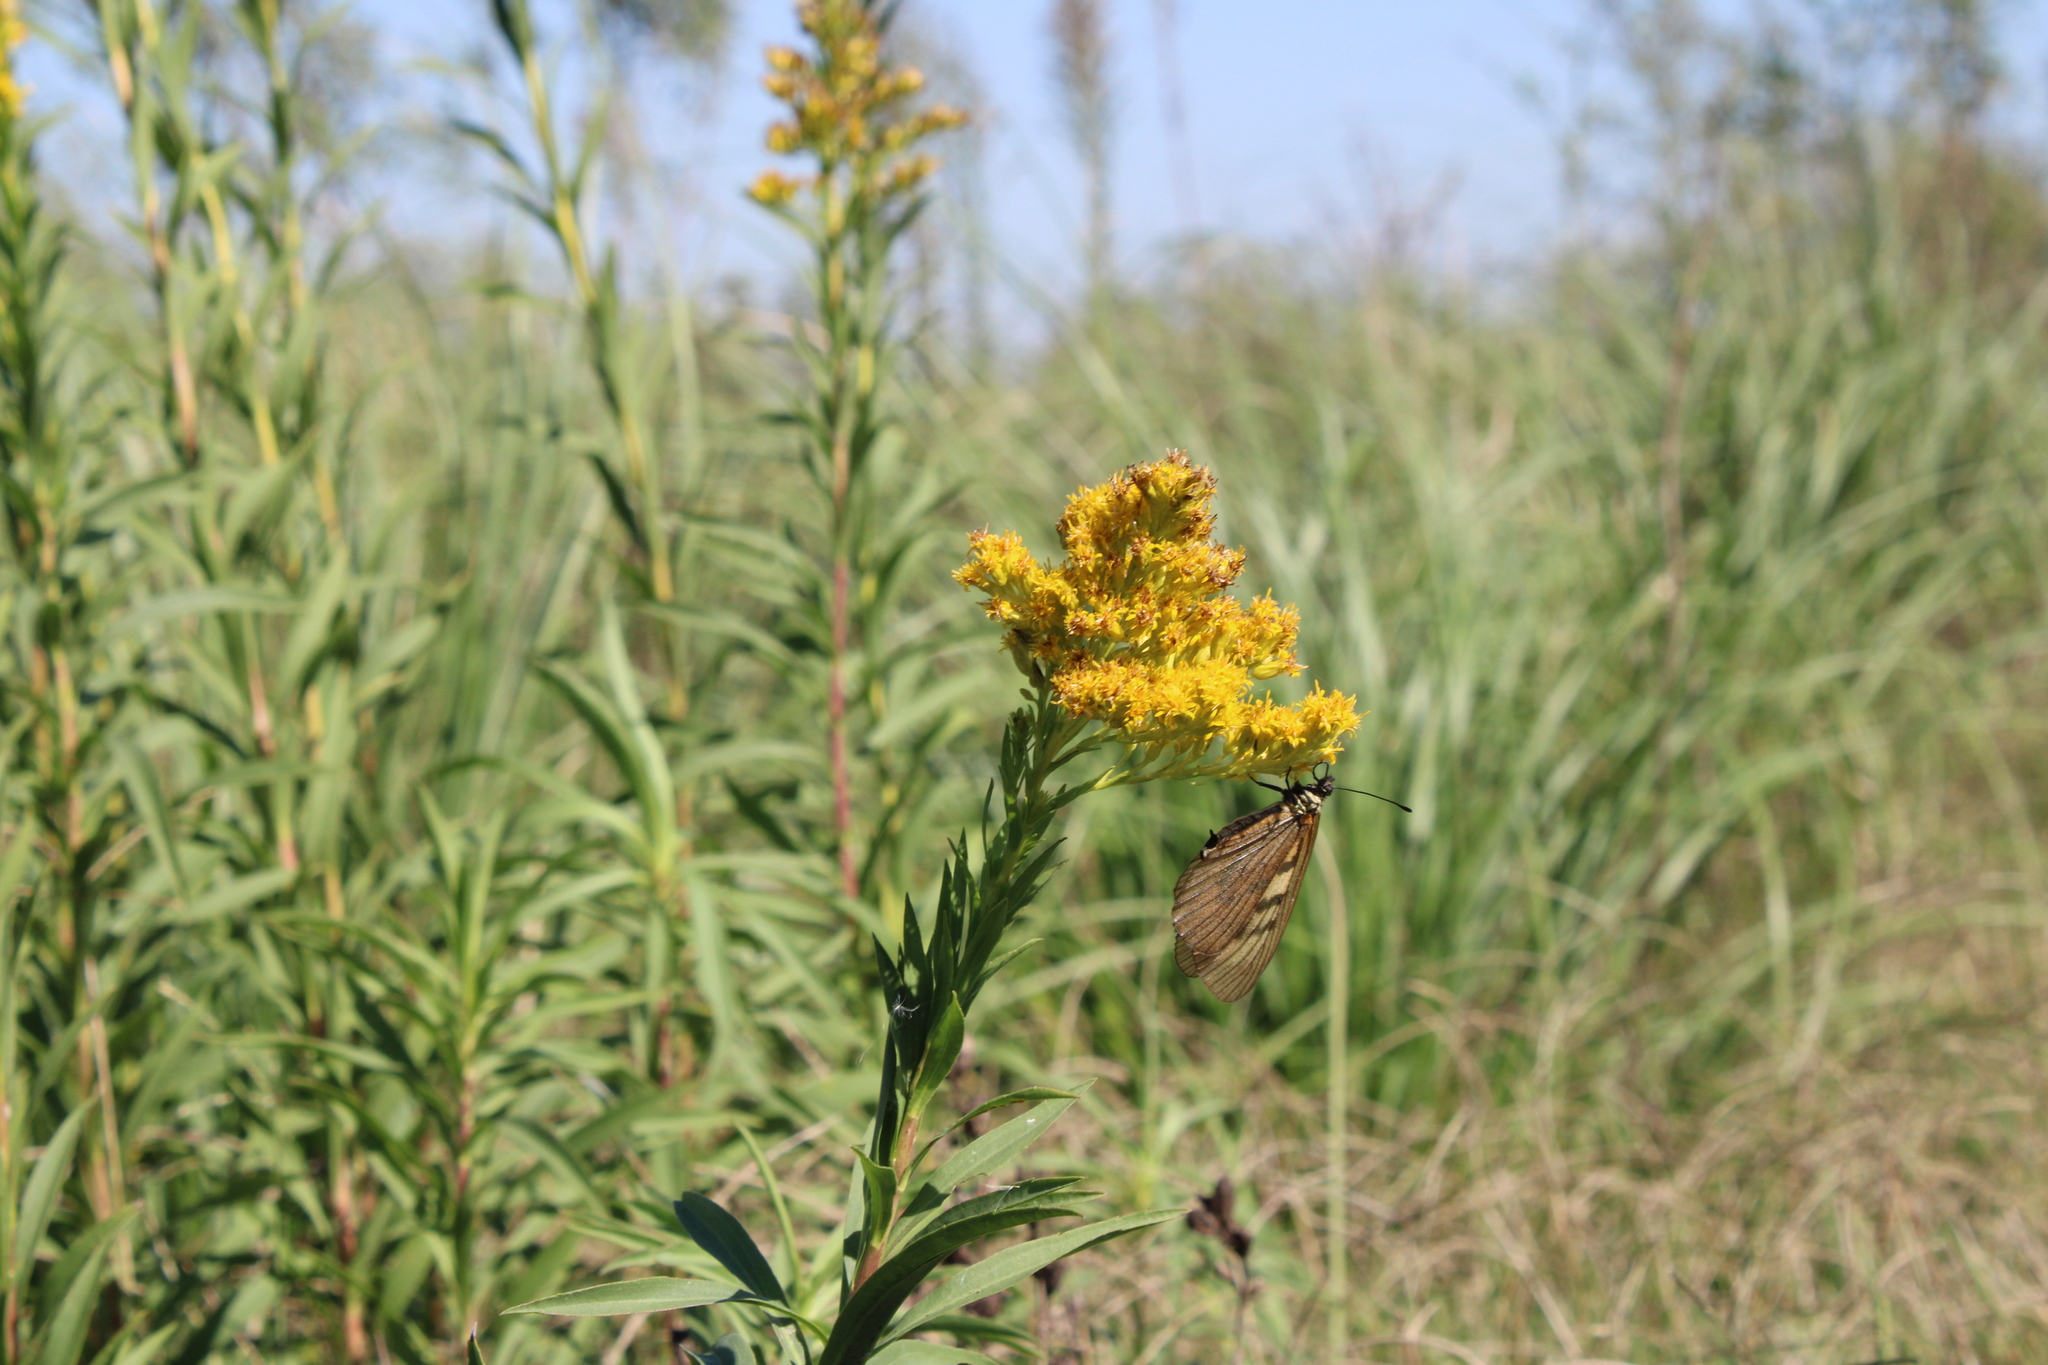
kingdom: Animalia
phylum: Arthropoda
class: Insecta
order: Lepidoptera
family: Nymphalidae
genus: Acraea
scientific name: Acraea momina
